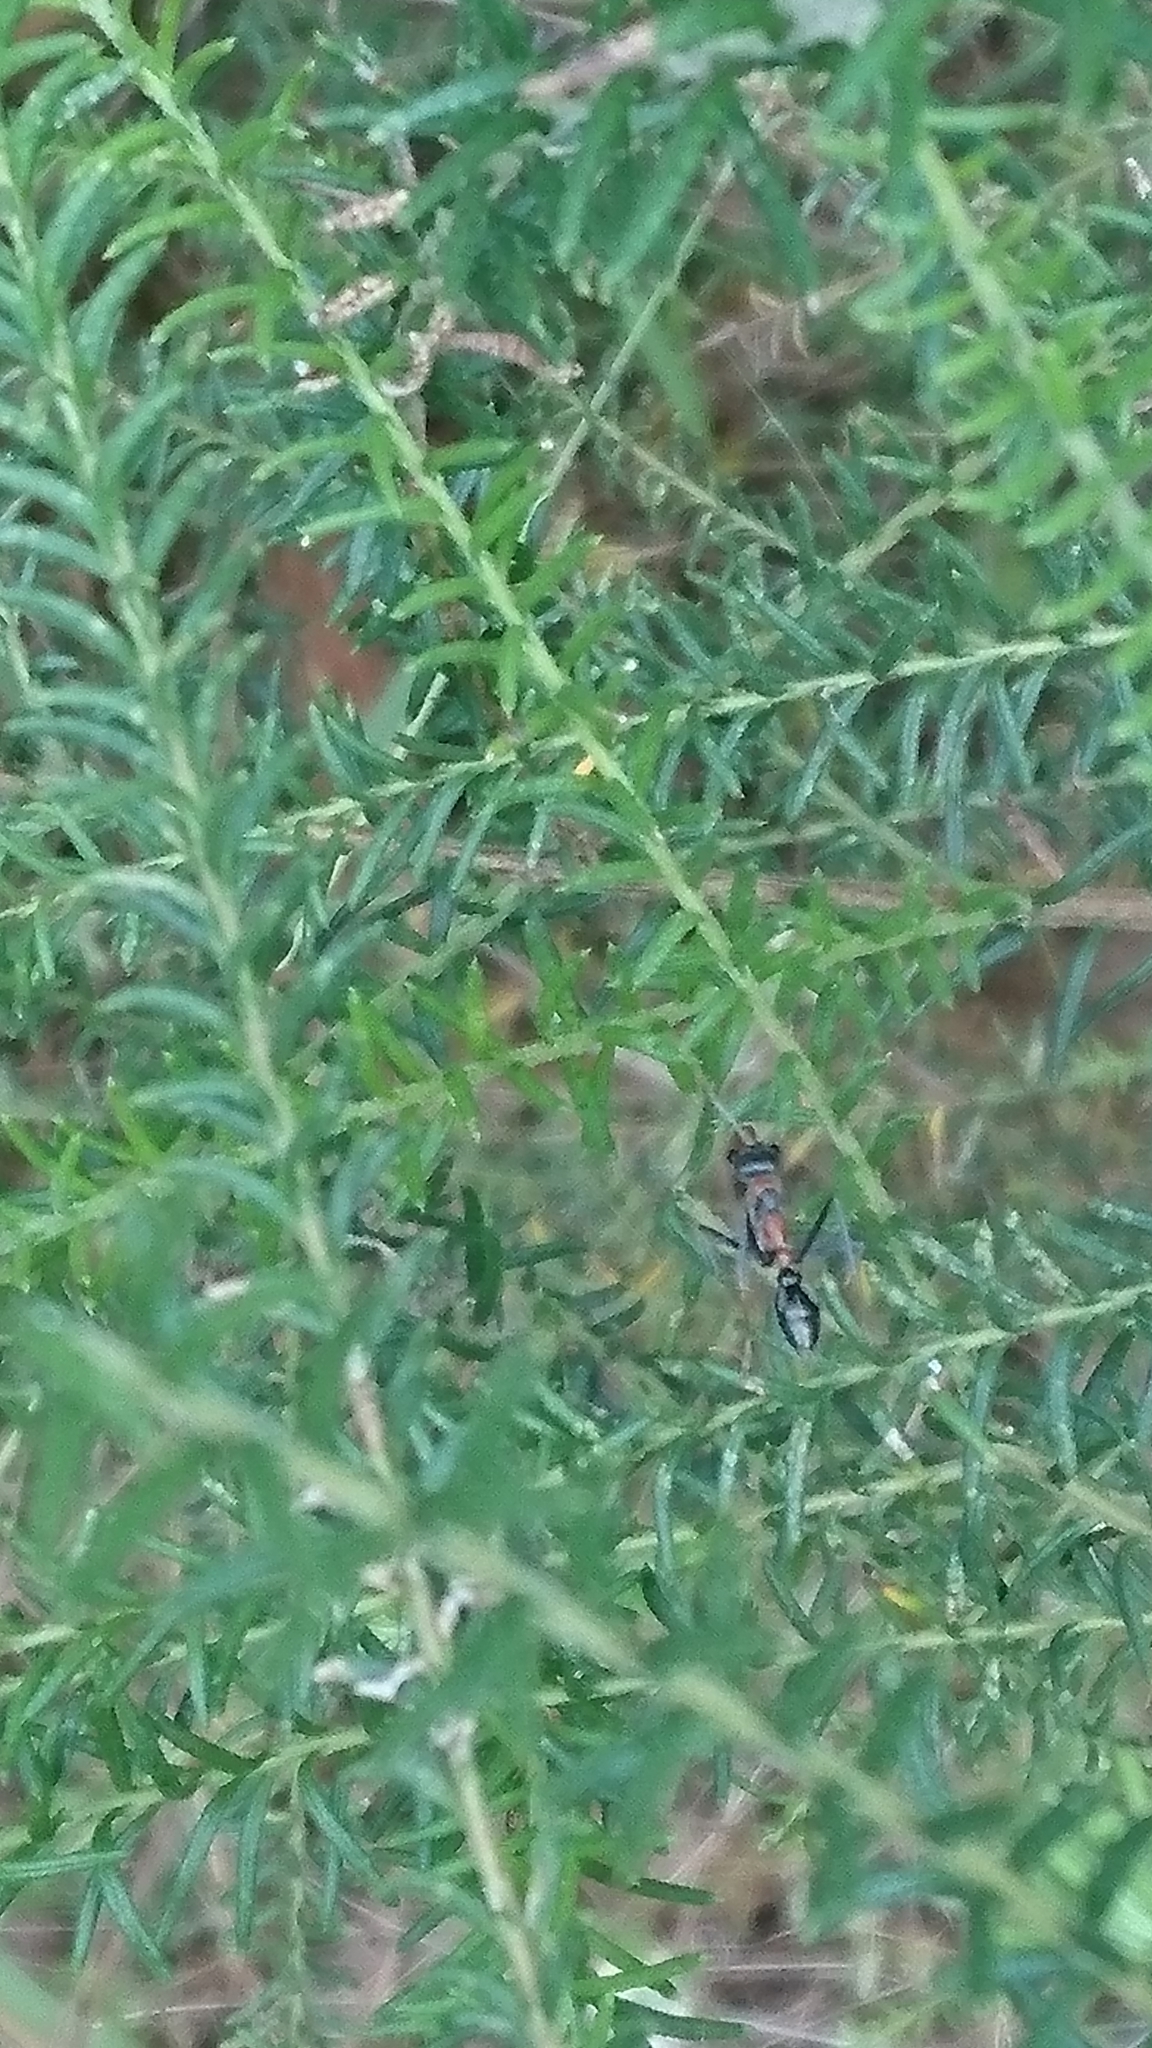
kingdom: Animalia
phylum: Arthropoda
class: Insecta
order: Hymenoptera
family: Formicidae
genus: Myrmecia
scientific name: Myrmecia nigrocincta
